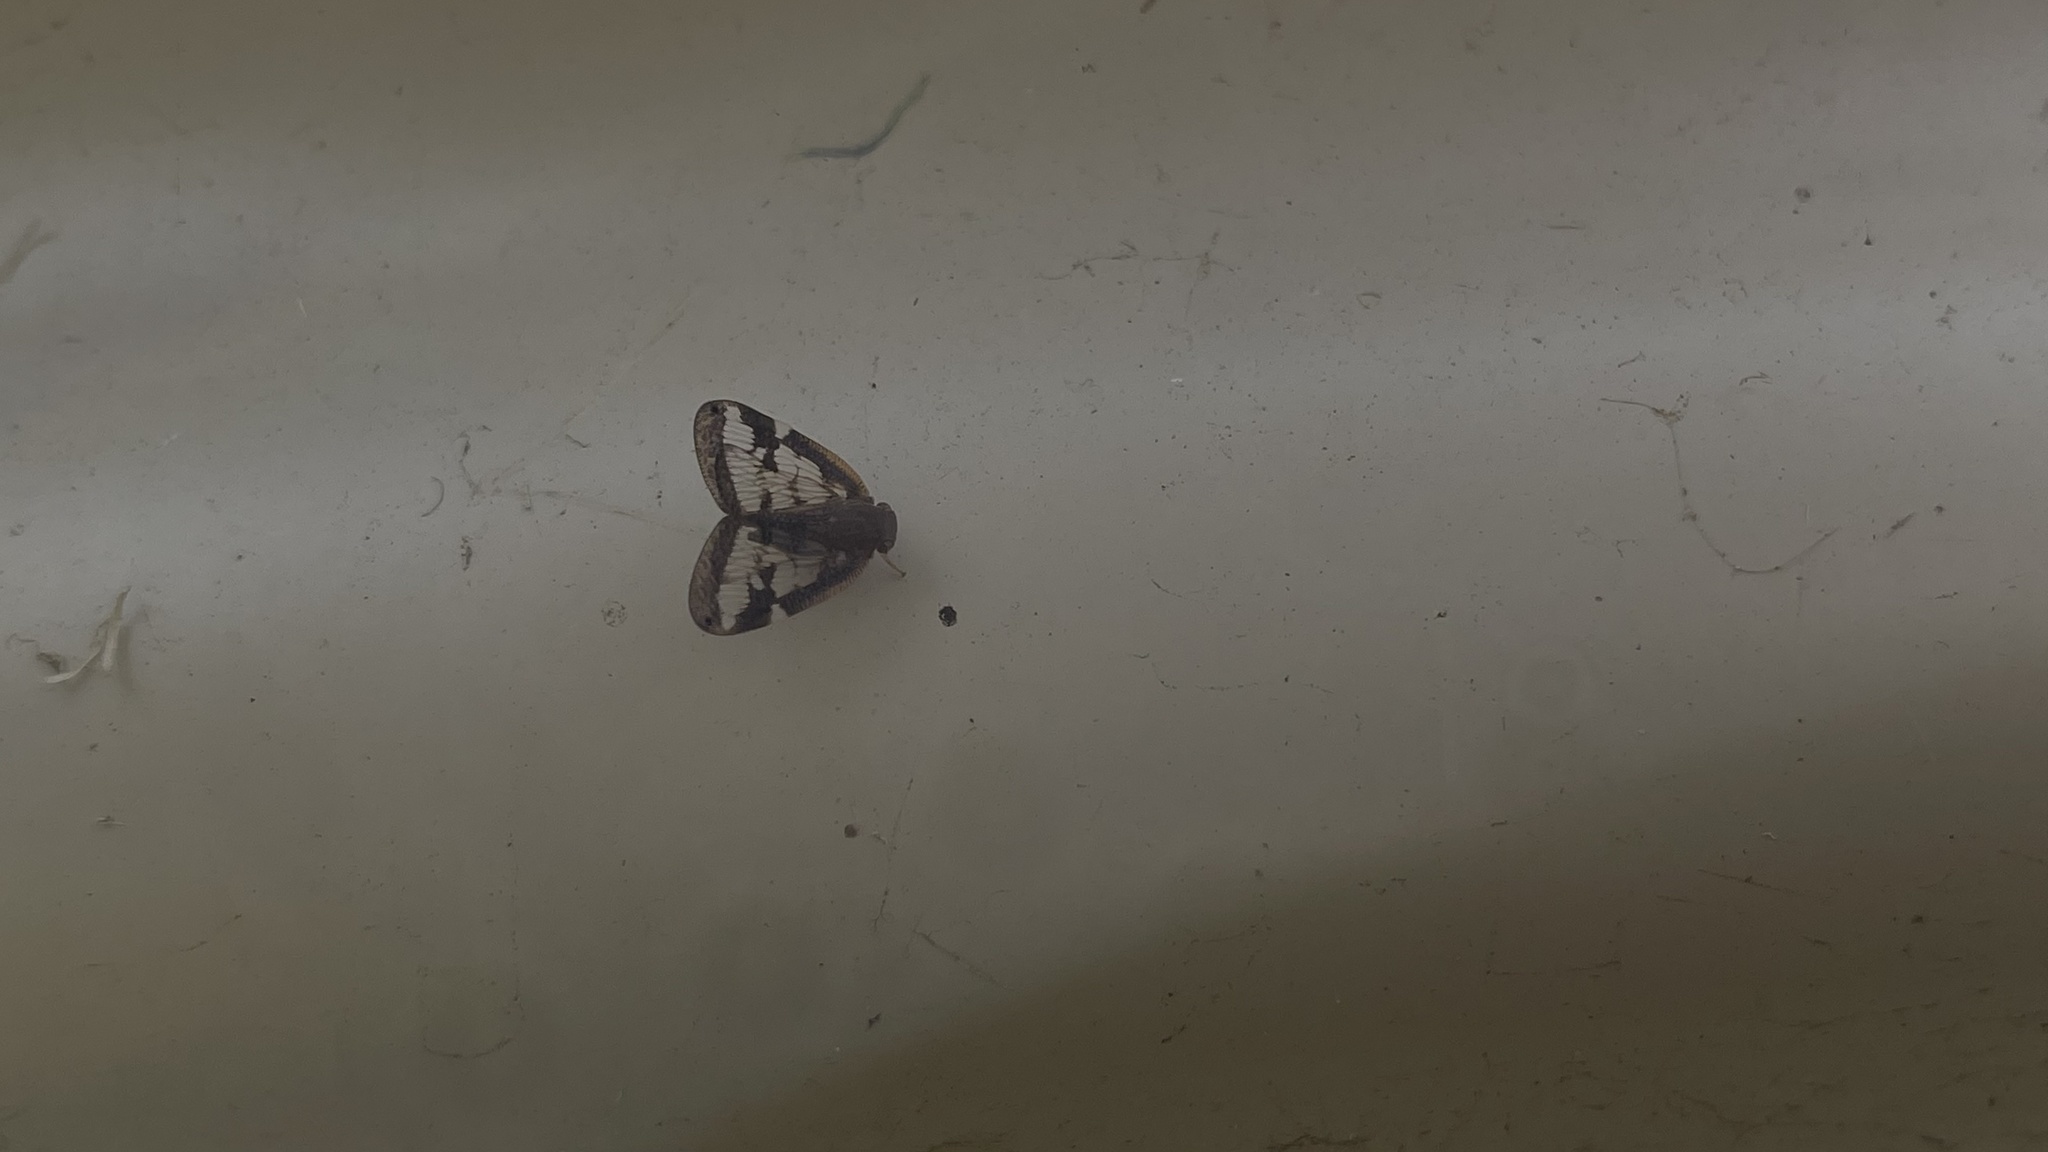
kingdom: Animalia
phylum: Arthropoda
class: Insecta
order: Hemiptera
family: Ricaniidae
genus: Scolypopa
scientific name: Scolypopa australis
